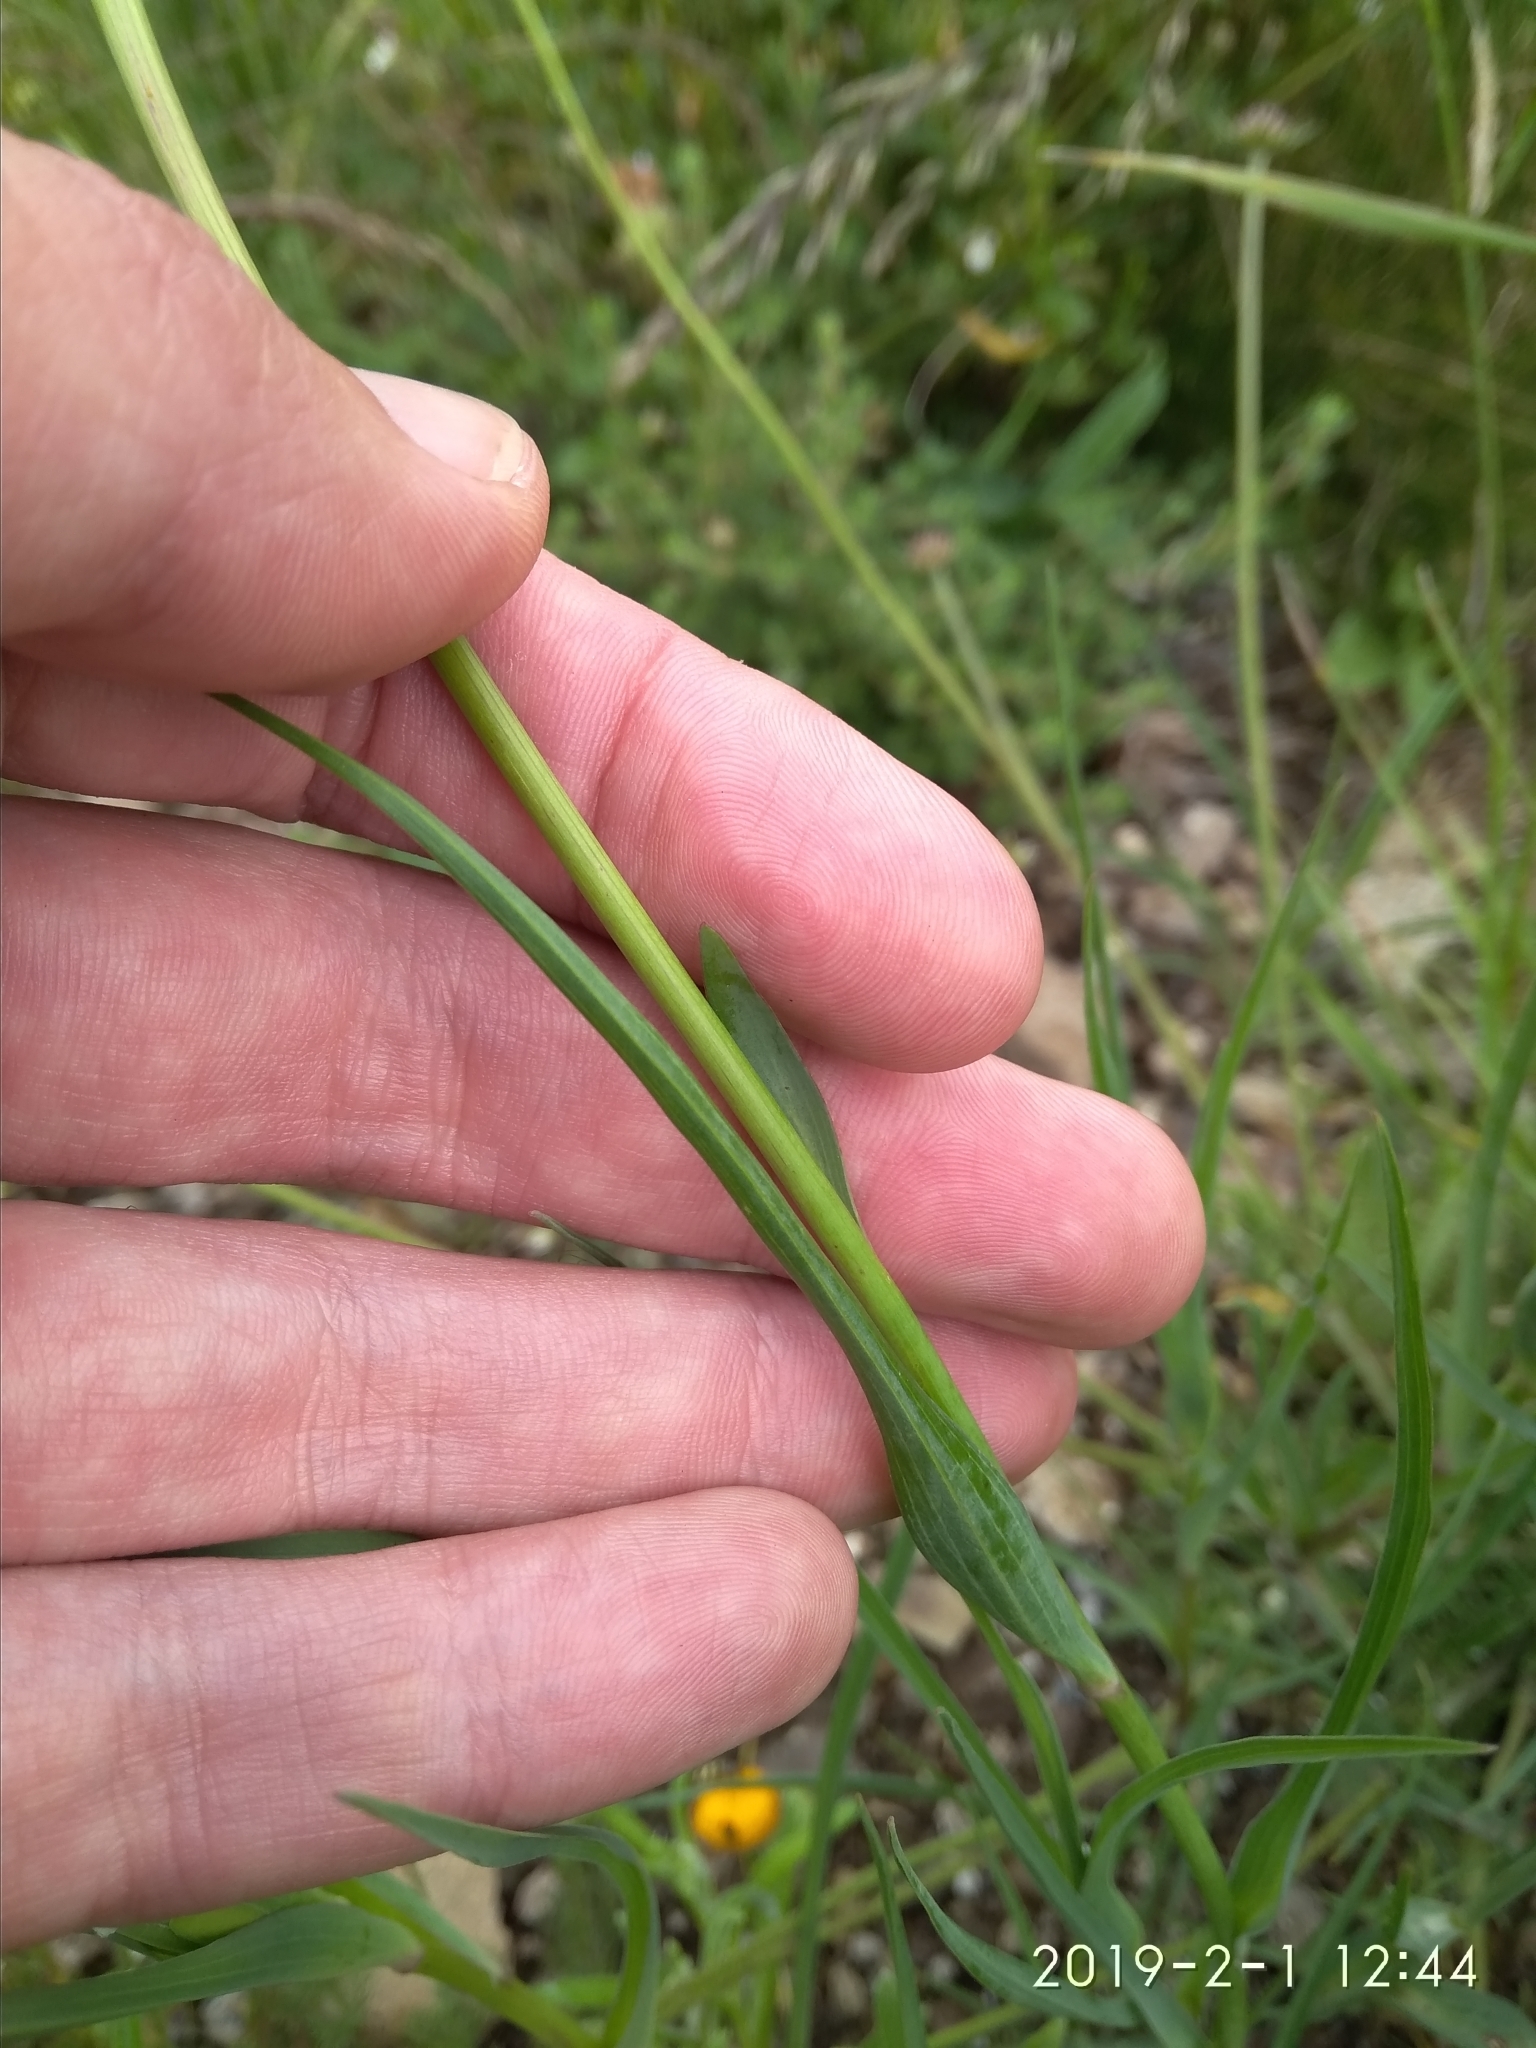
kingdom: Plantae
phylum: Tracheophyta
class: Magnoliopsida
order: Asterales
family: Asteraceae
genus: Tragopogon
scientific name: Tragopogon dubius
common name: Yellow salsify
